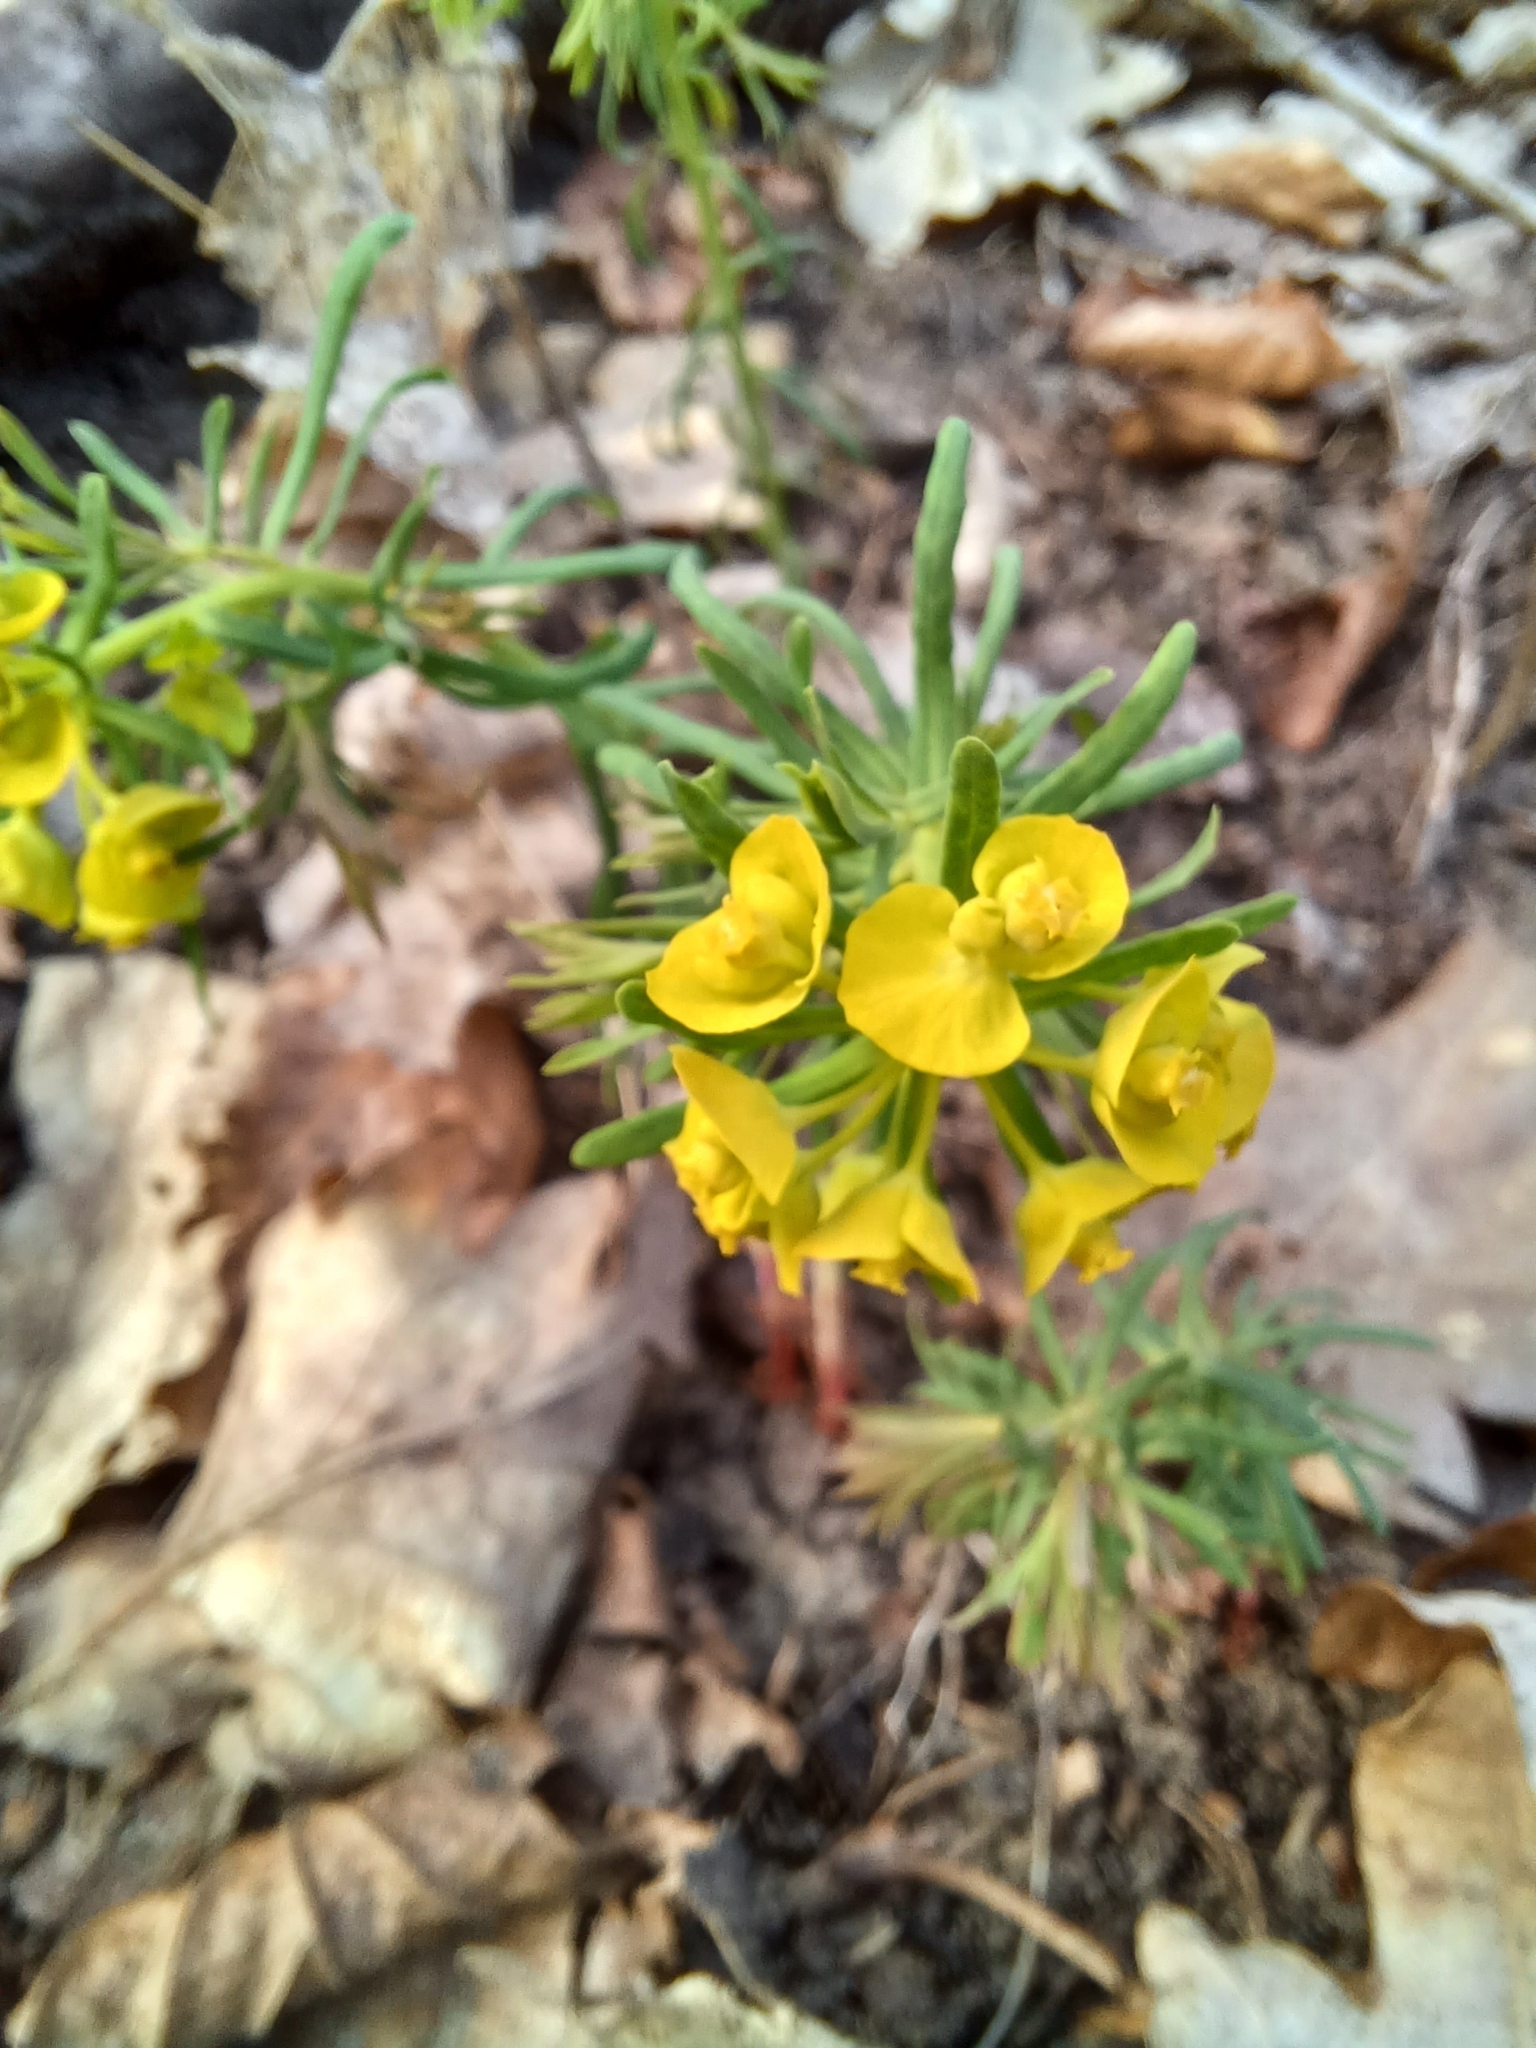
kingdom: Plantae
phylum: Tracheophyta
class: Magnoliopsida
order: Malpighiales
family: Euphorbiaceae
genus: Euphorbia
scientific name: Euphorbia cyparissias
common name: Cypress spurge
